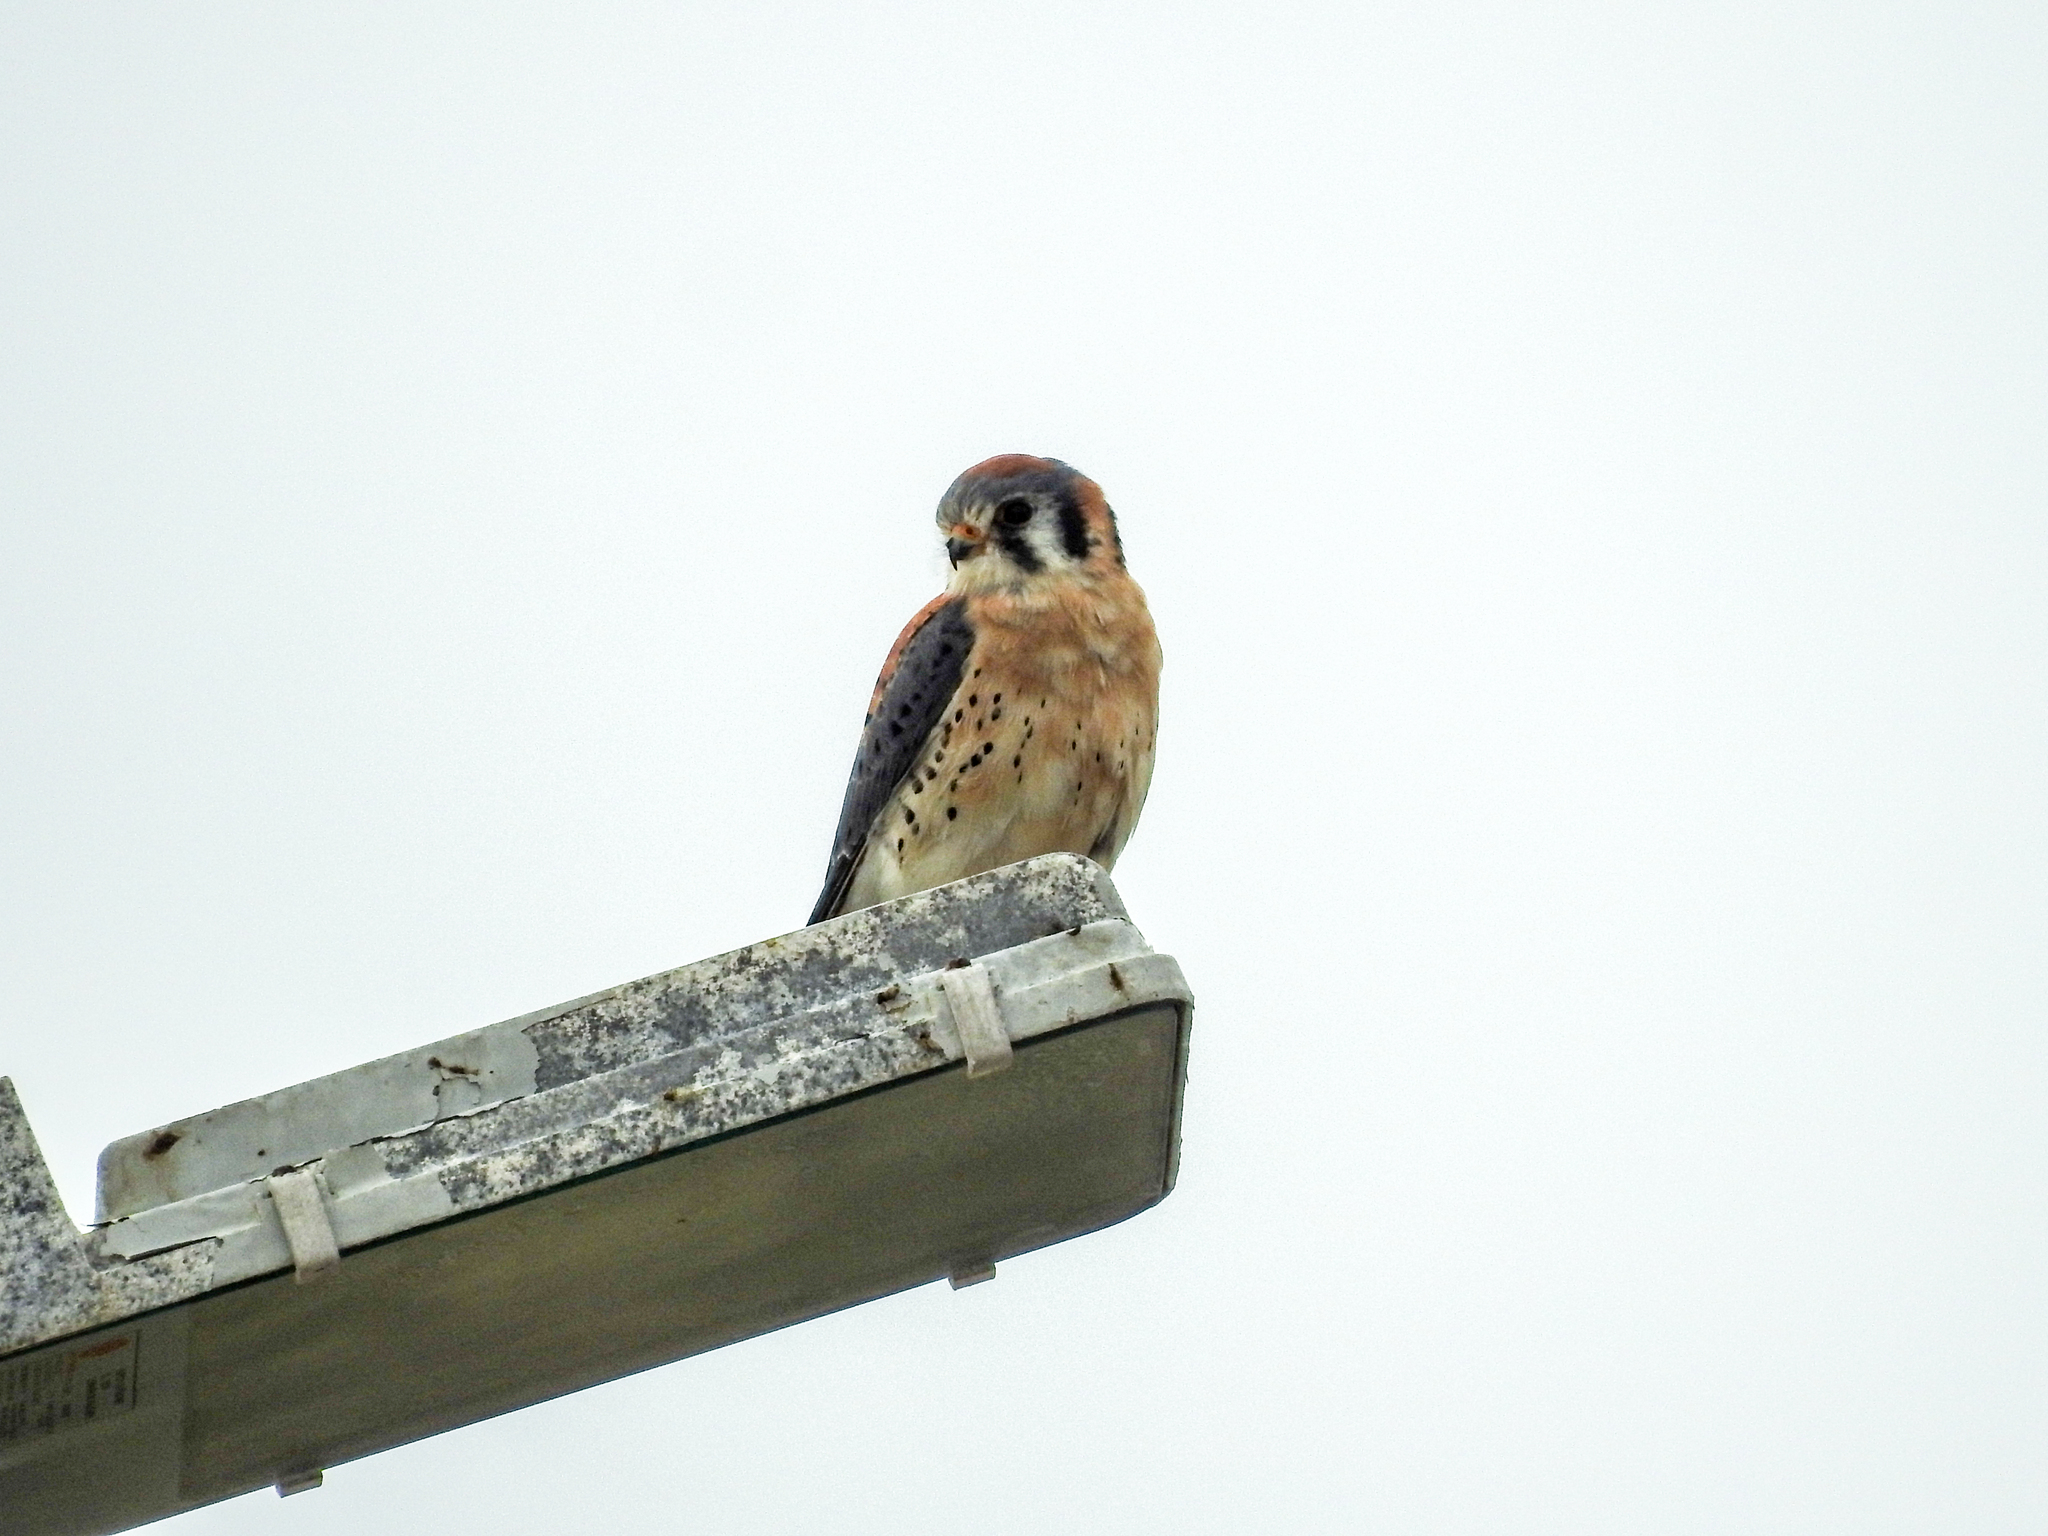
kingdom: Animalia
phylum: Chordata
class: Aves
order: Falconiformes
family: Falconidae
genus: Falco
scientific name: Falco sparverius
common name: American kestrel
